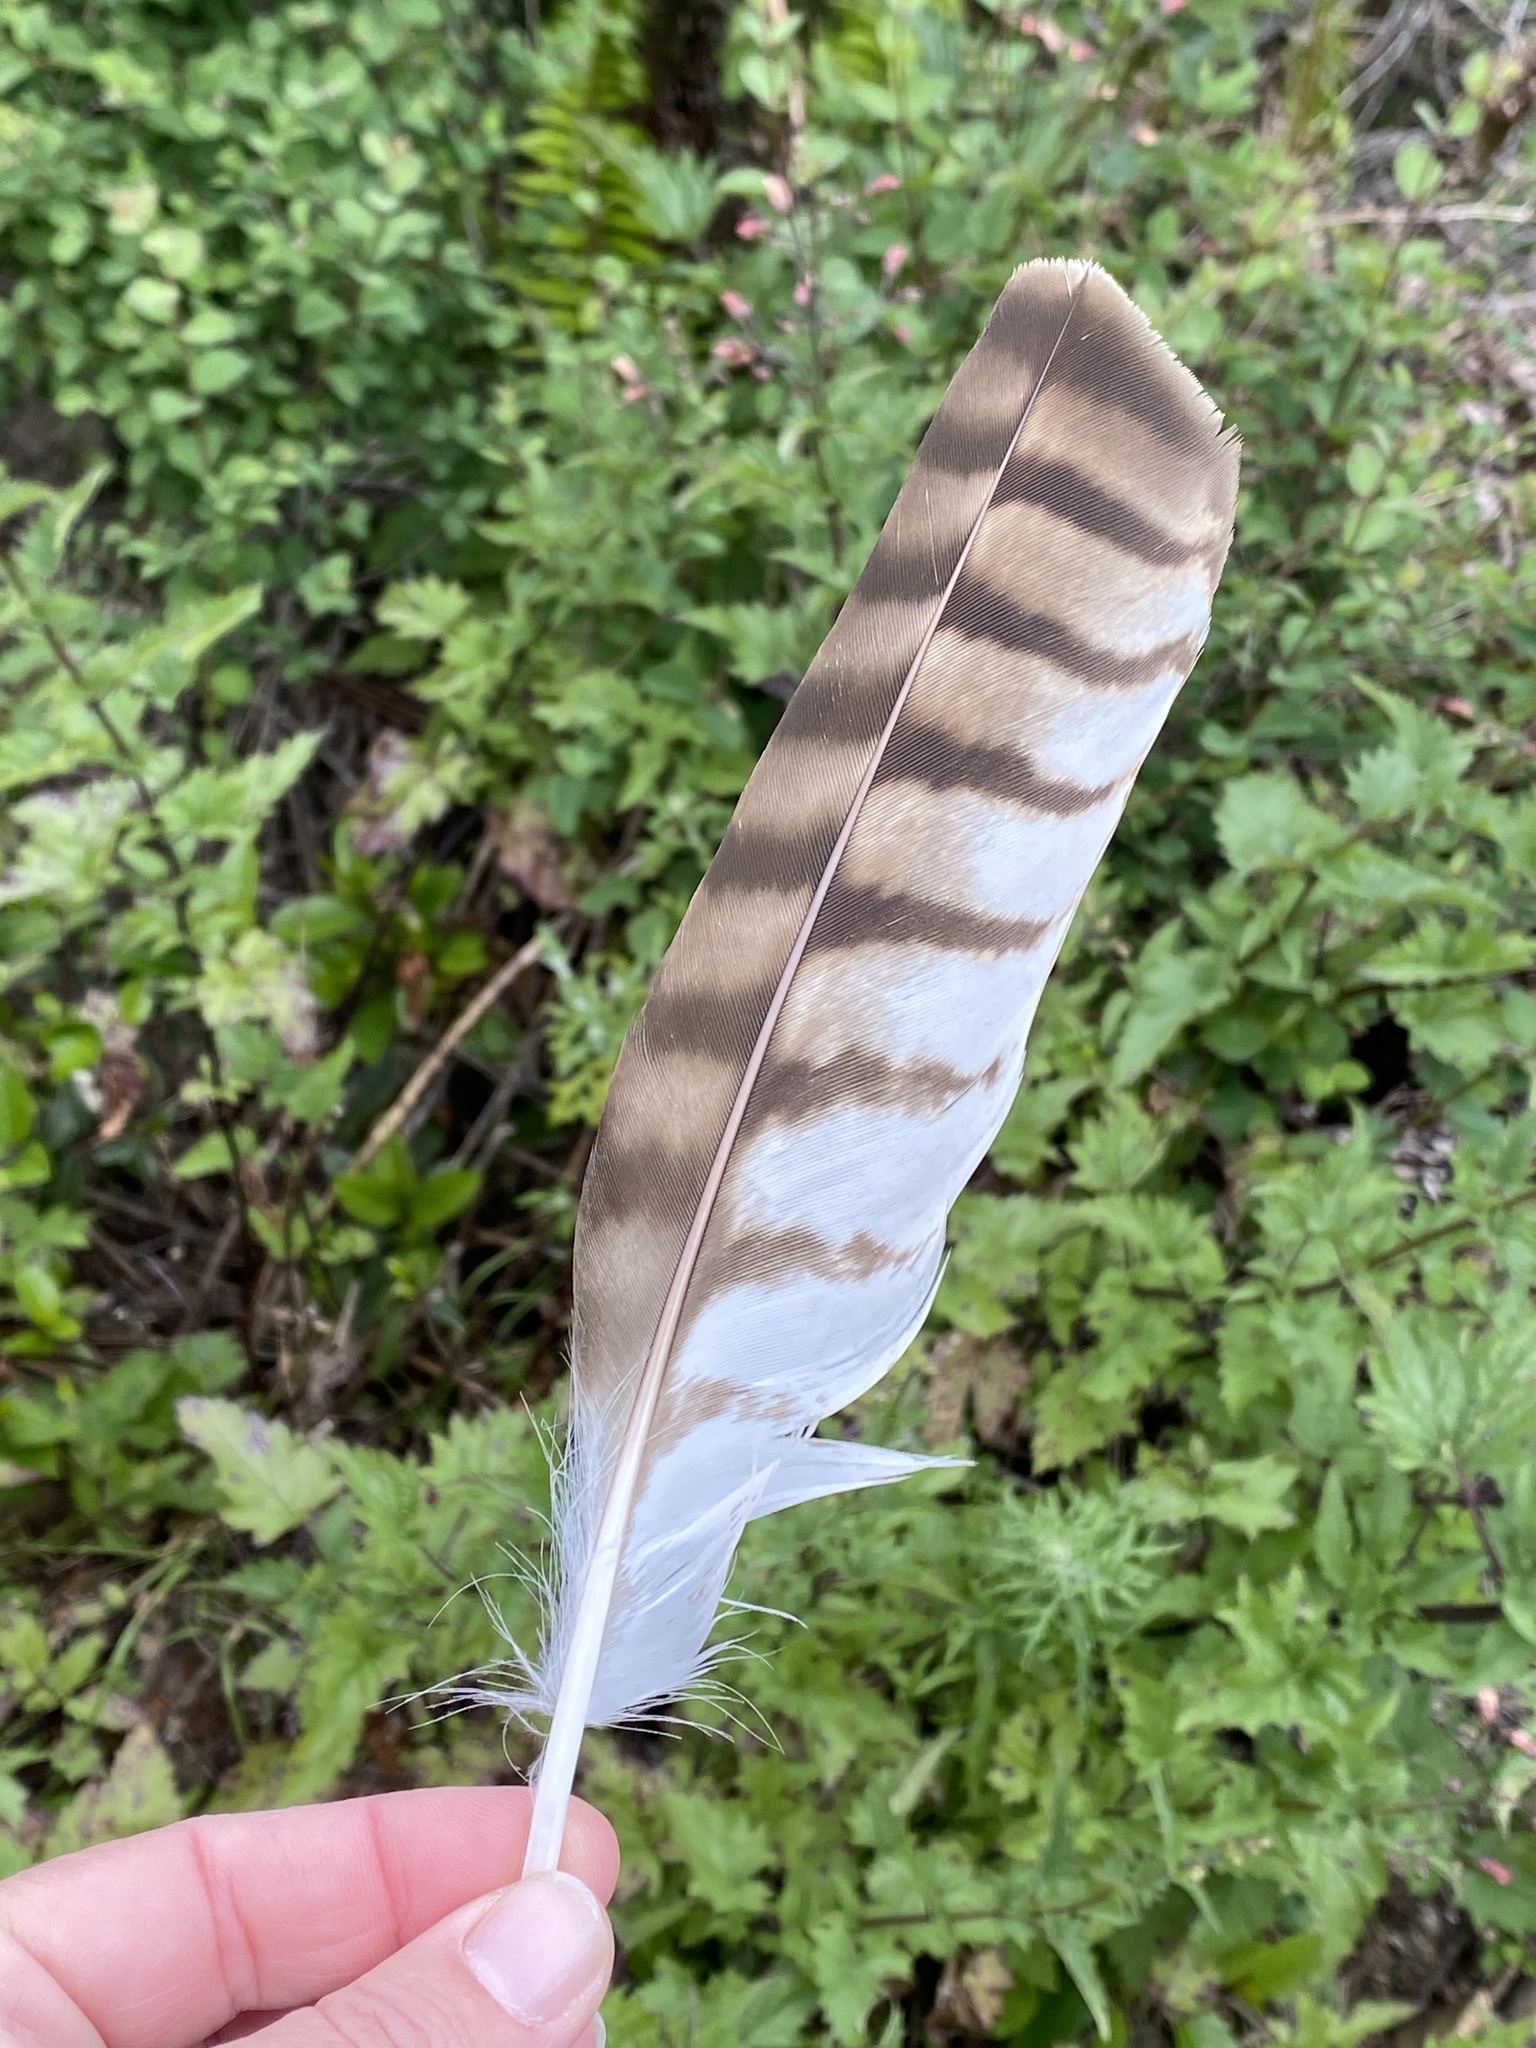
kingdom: Animalia
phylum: Chordata
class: Aves
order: Accipitriformes
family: Accipitridae
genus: Buteo
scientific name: Buteo jamaicensis
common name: Red-tailed hawk
